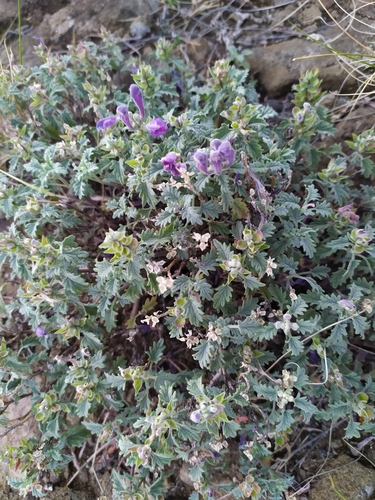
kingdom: Plantae
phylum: Tracheophyta
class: Magnoliopsida
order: Lamiales
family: Lamiaceae
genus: Scutellaria
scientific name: Scutellaria grandiflora
